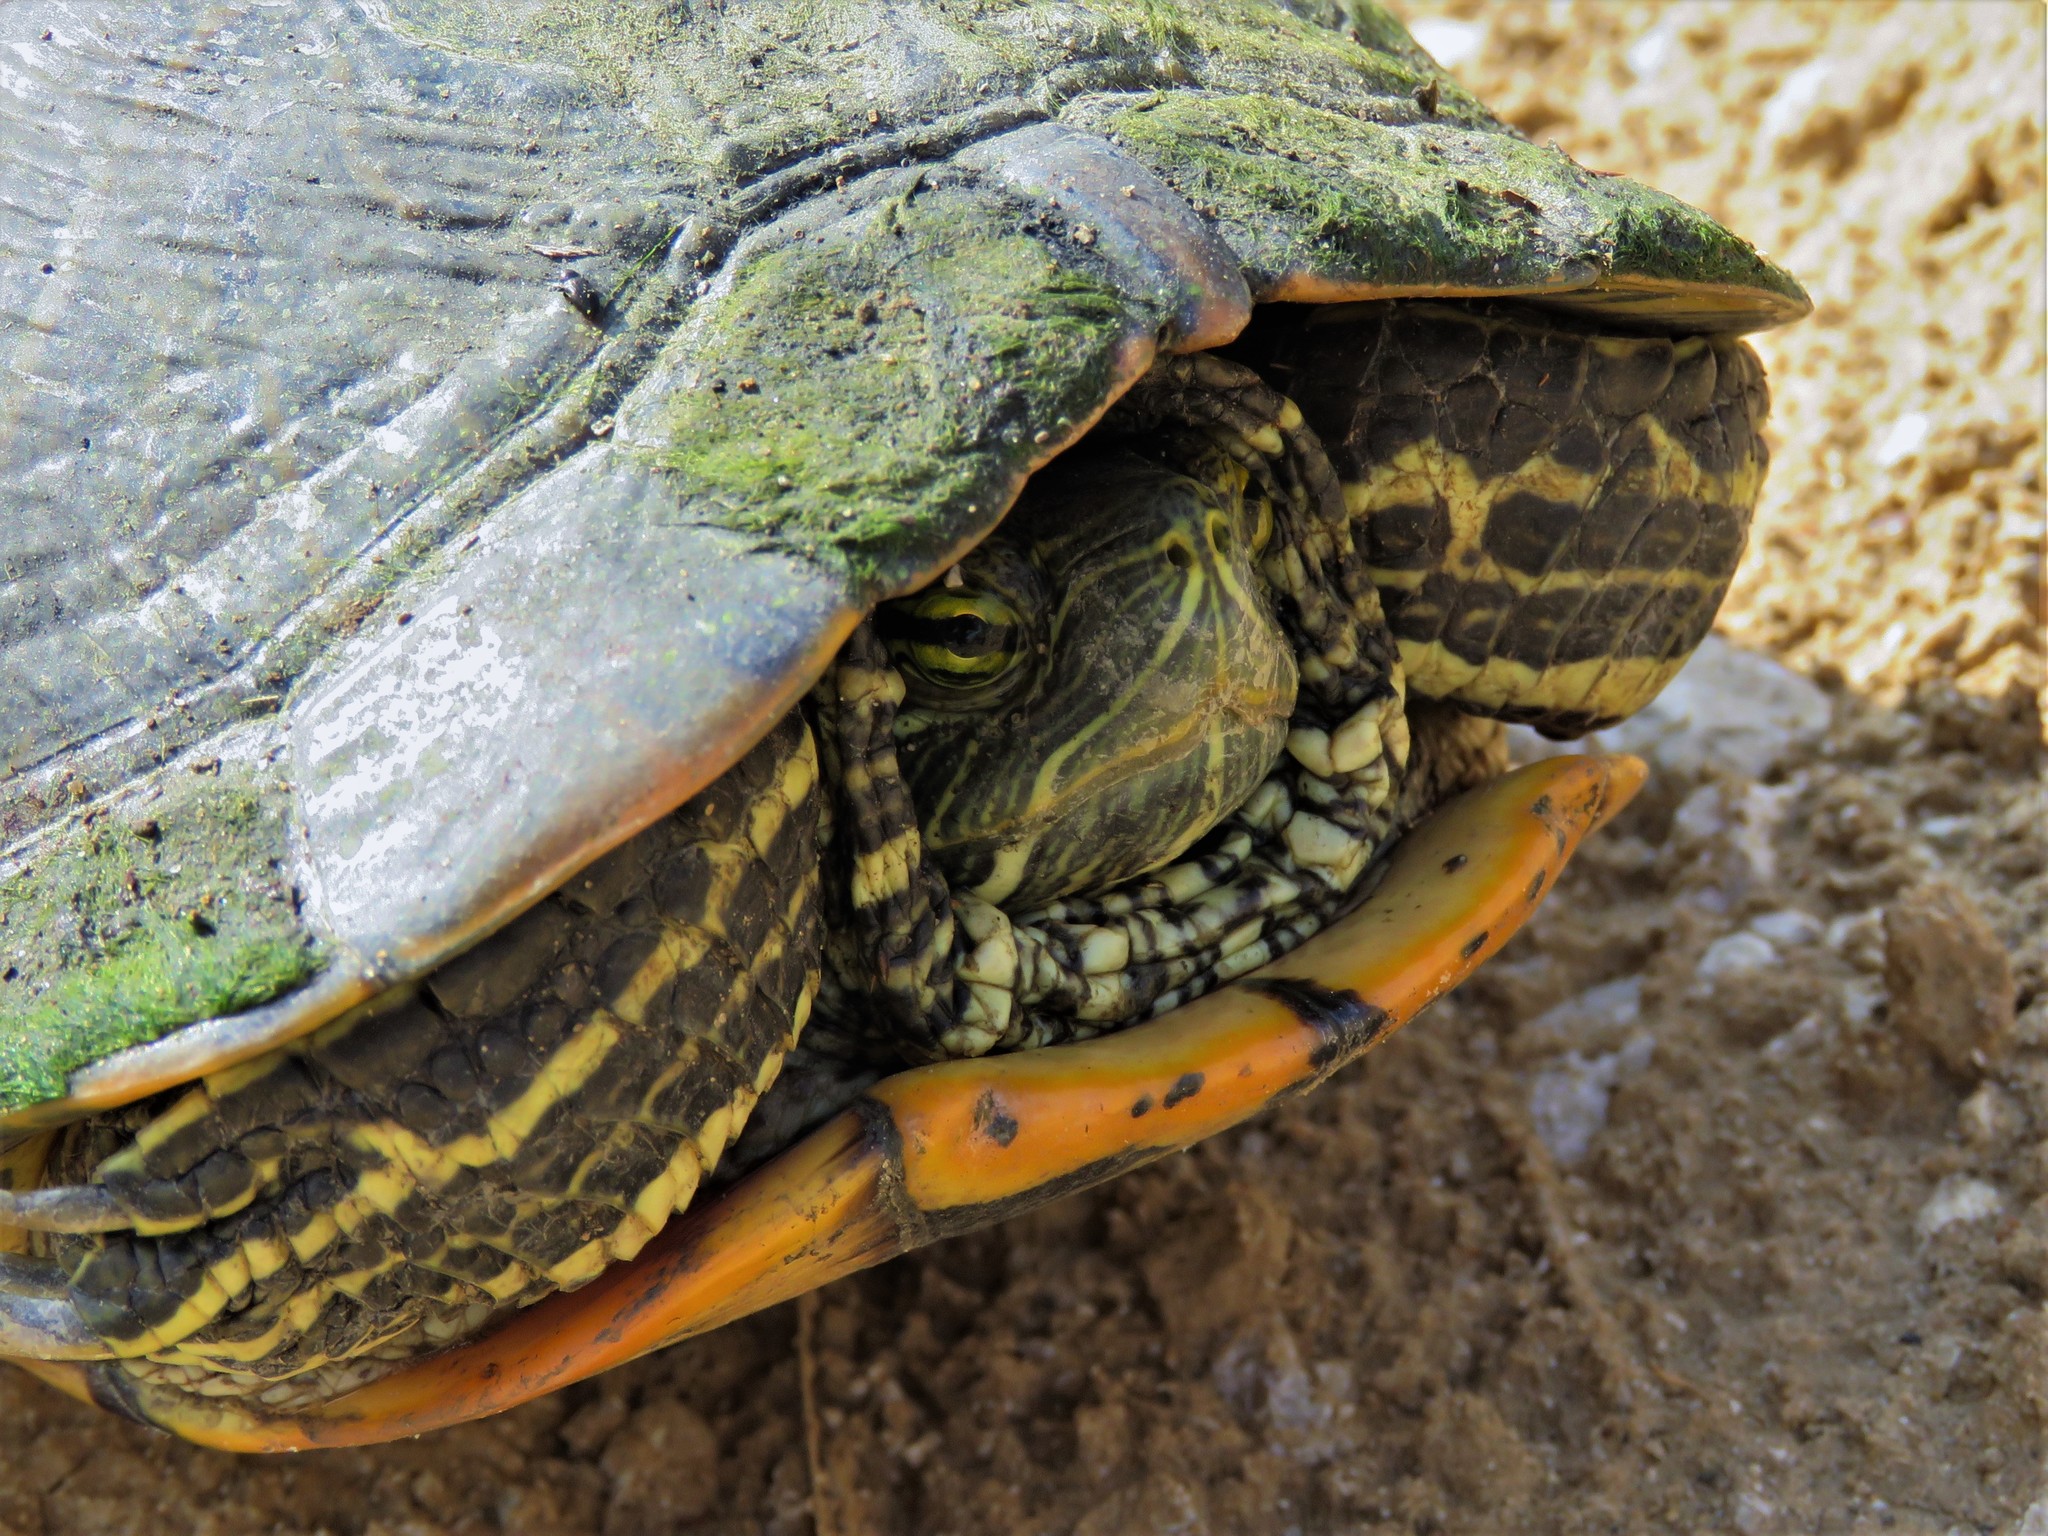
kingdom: Animalia
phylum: Chordata
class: Testudines
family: Emydidae
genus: Trachemys
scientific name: Trachemys scripta
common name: Slider
